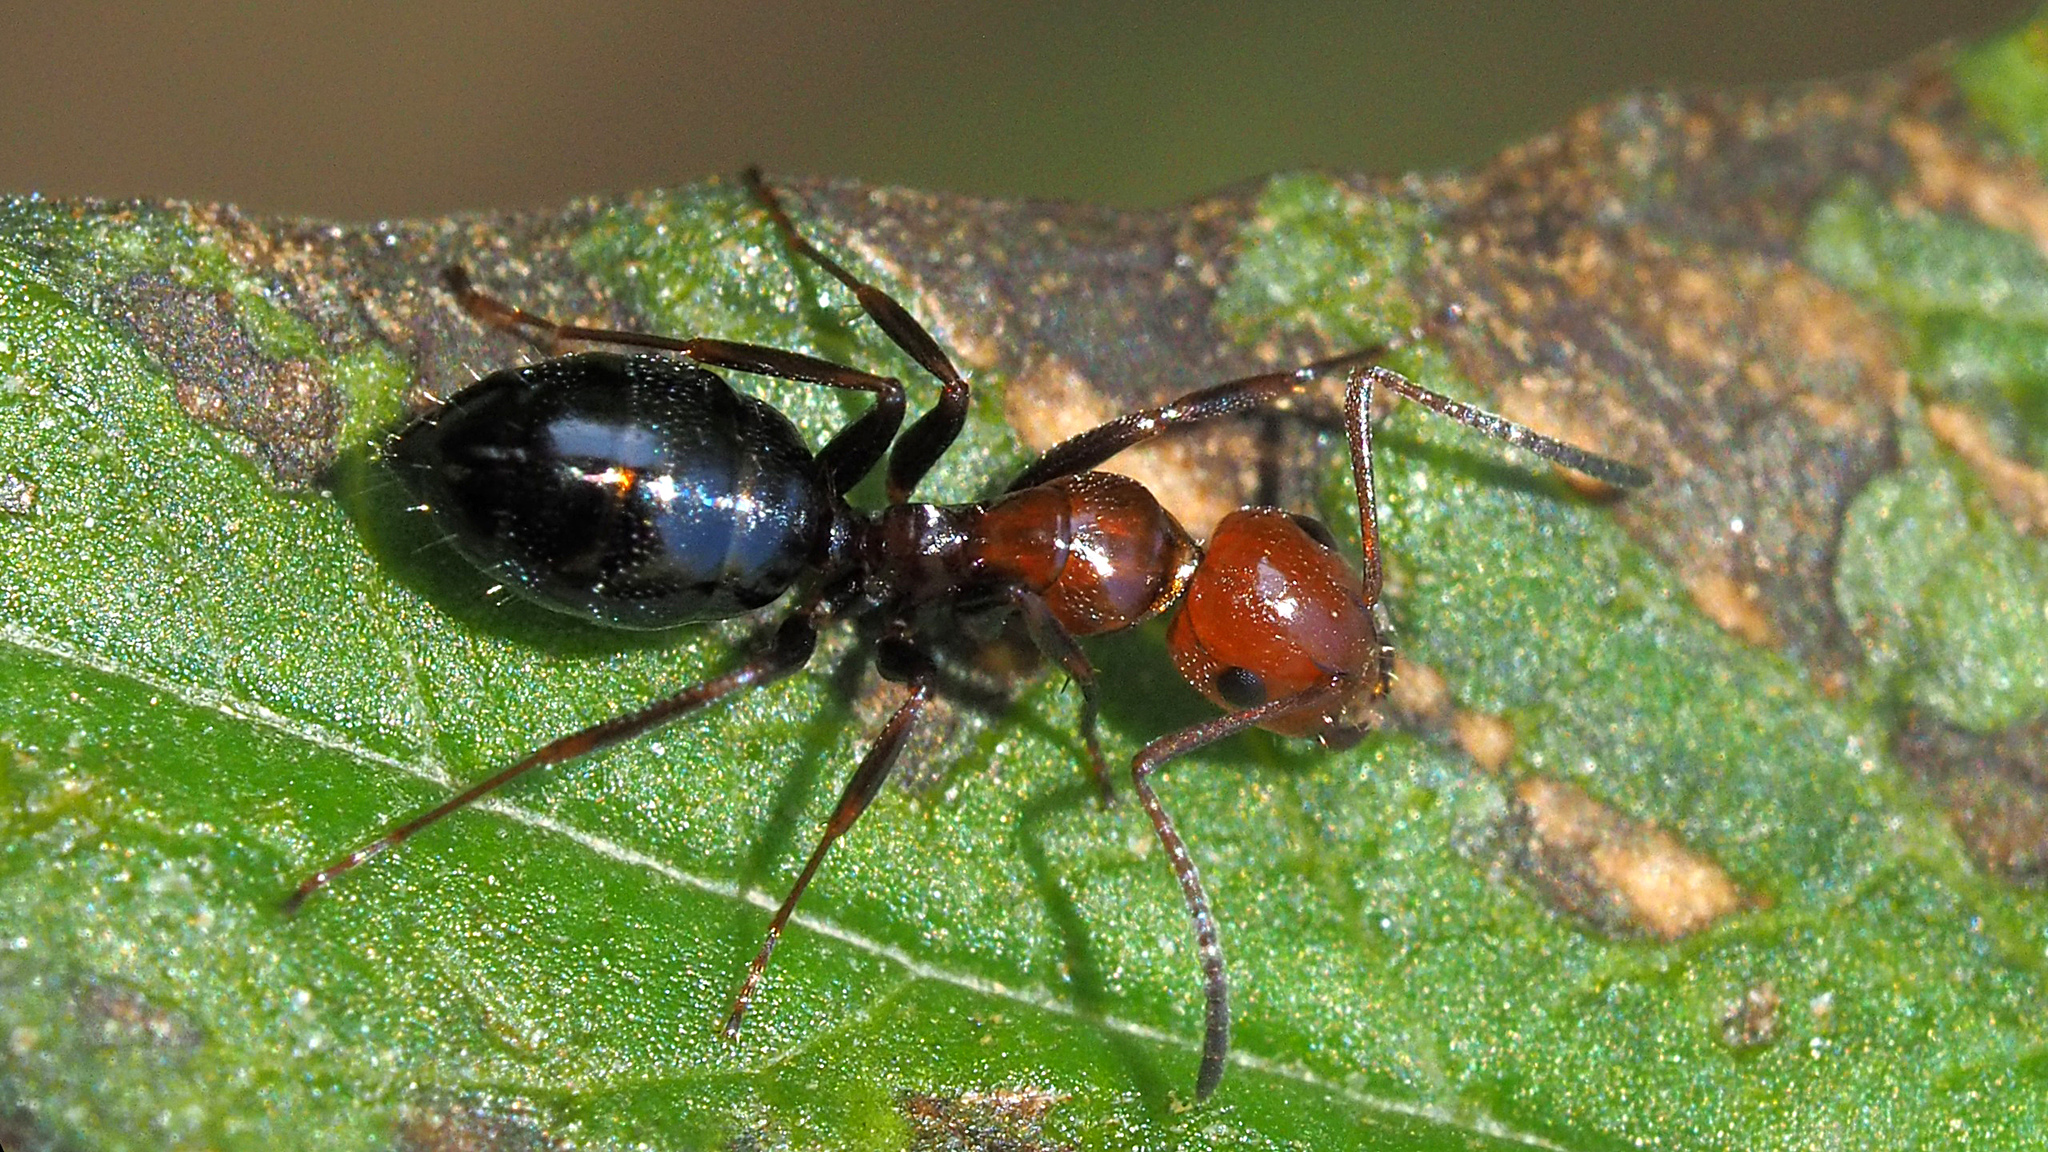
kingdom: Animalia
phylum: Arthropoda
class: Insecta
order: Hymenoptera
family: Formicidae
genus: Camponotus
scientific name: Camponotus lateralis
